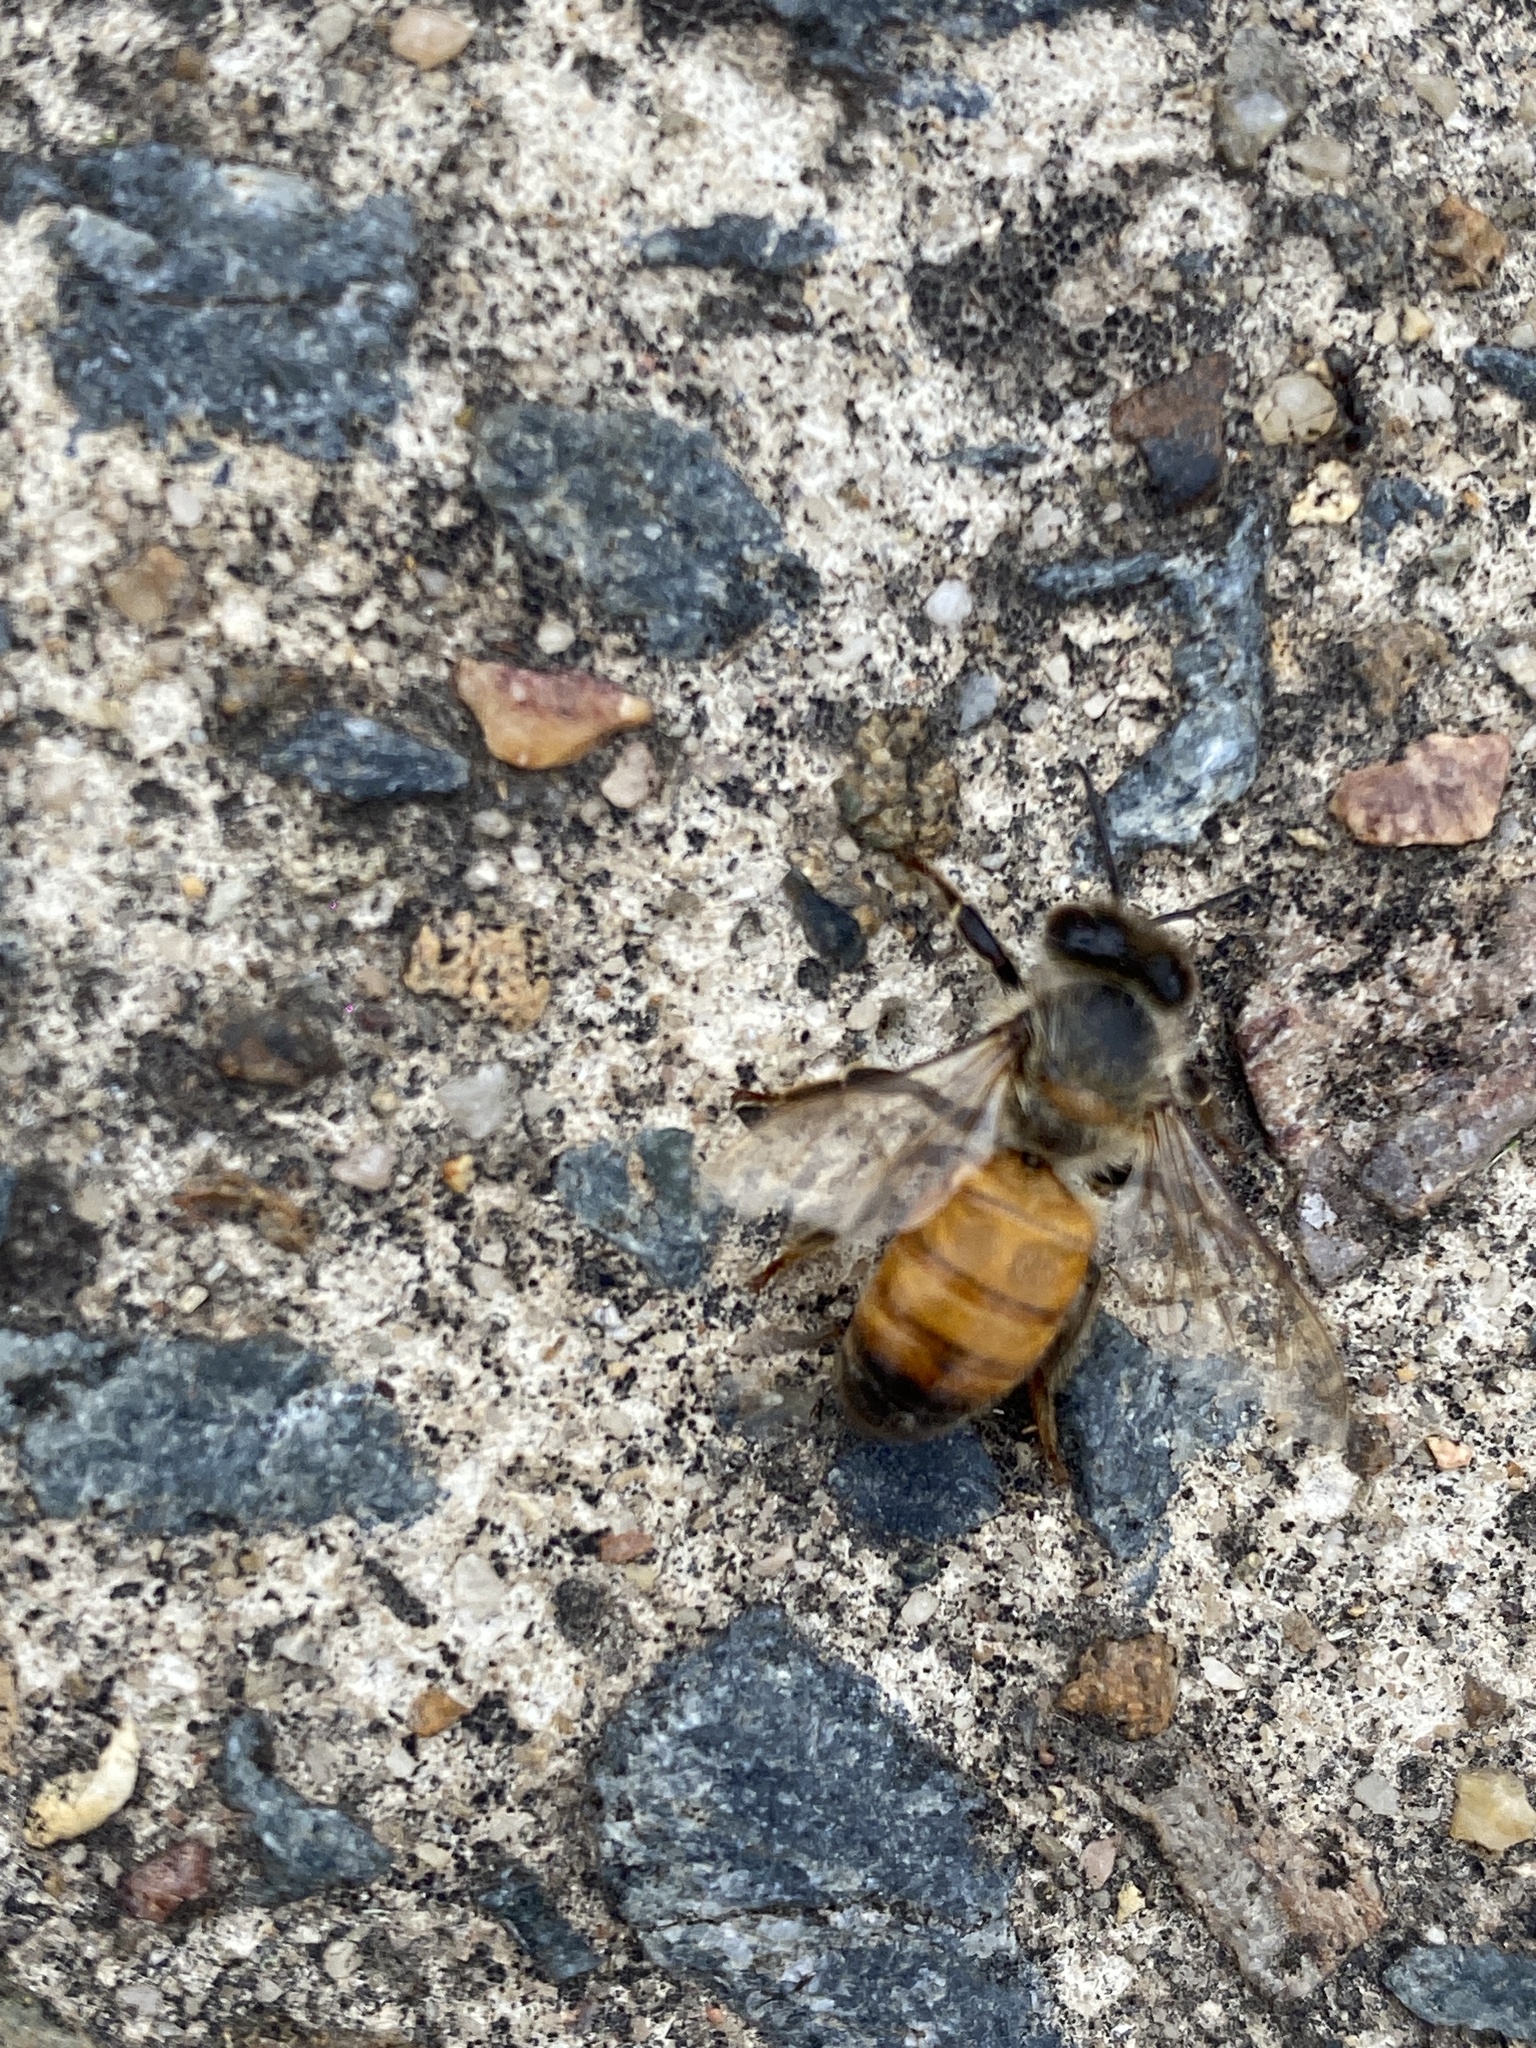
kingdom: Animalia
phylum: Arthropoda
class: Insecta
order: Hymenoptera
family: Apidae
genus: Apis
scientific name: Apis mellifera
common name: Honey bee
